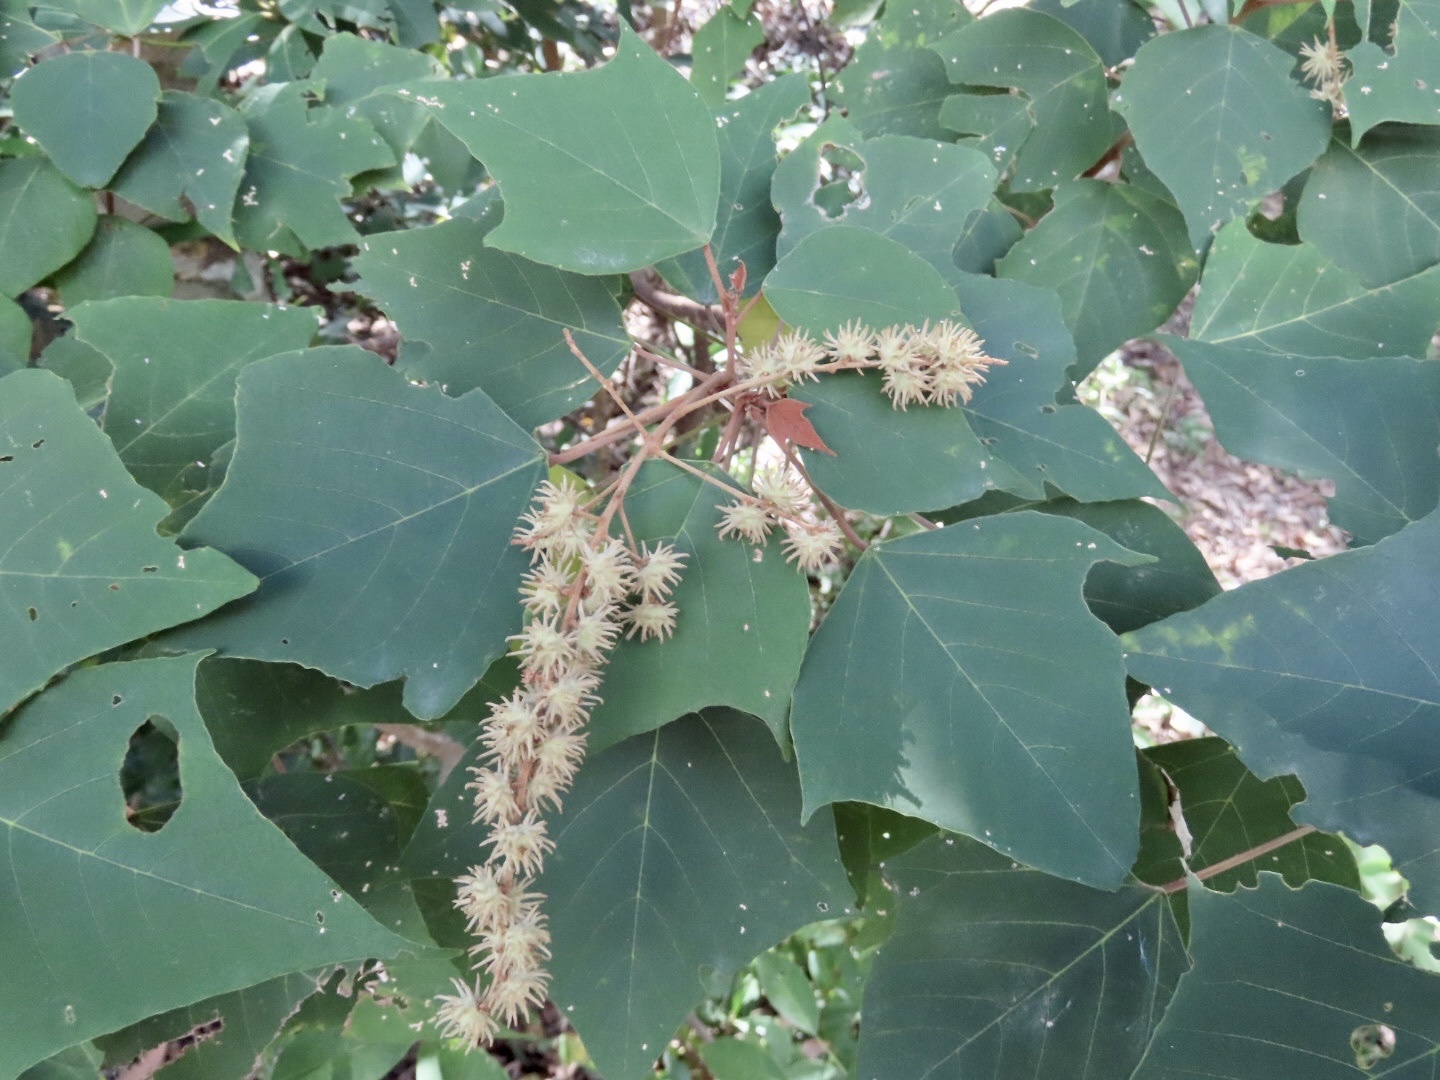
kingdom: Plantae
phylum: Tracheophyta
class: Magnoliopsida
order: Malpighiales
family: Euphorbiaceae
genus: Mallotus
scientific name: Mallotus paniculatus
